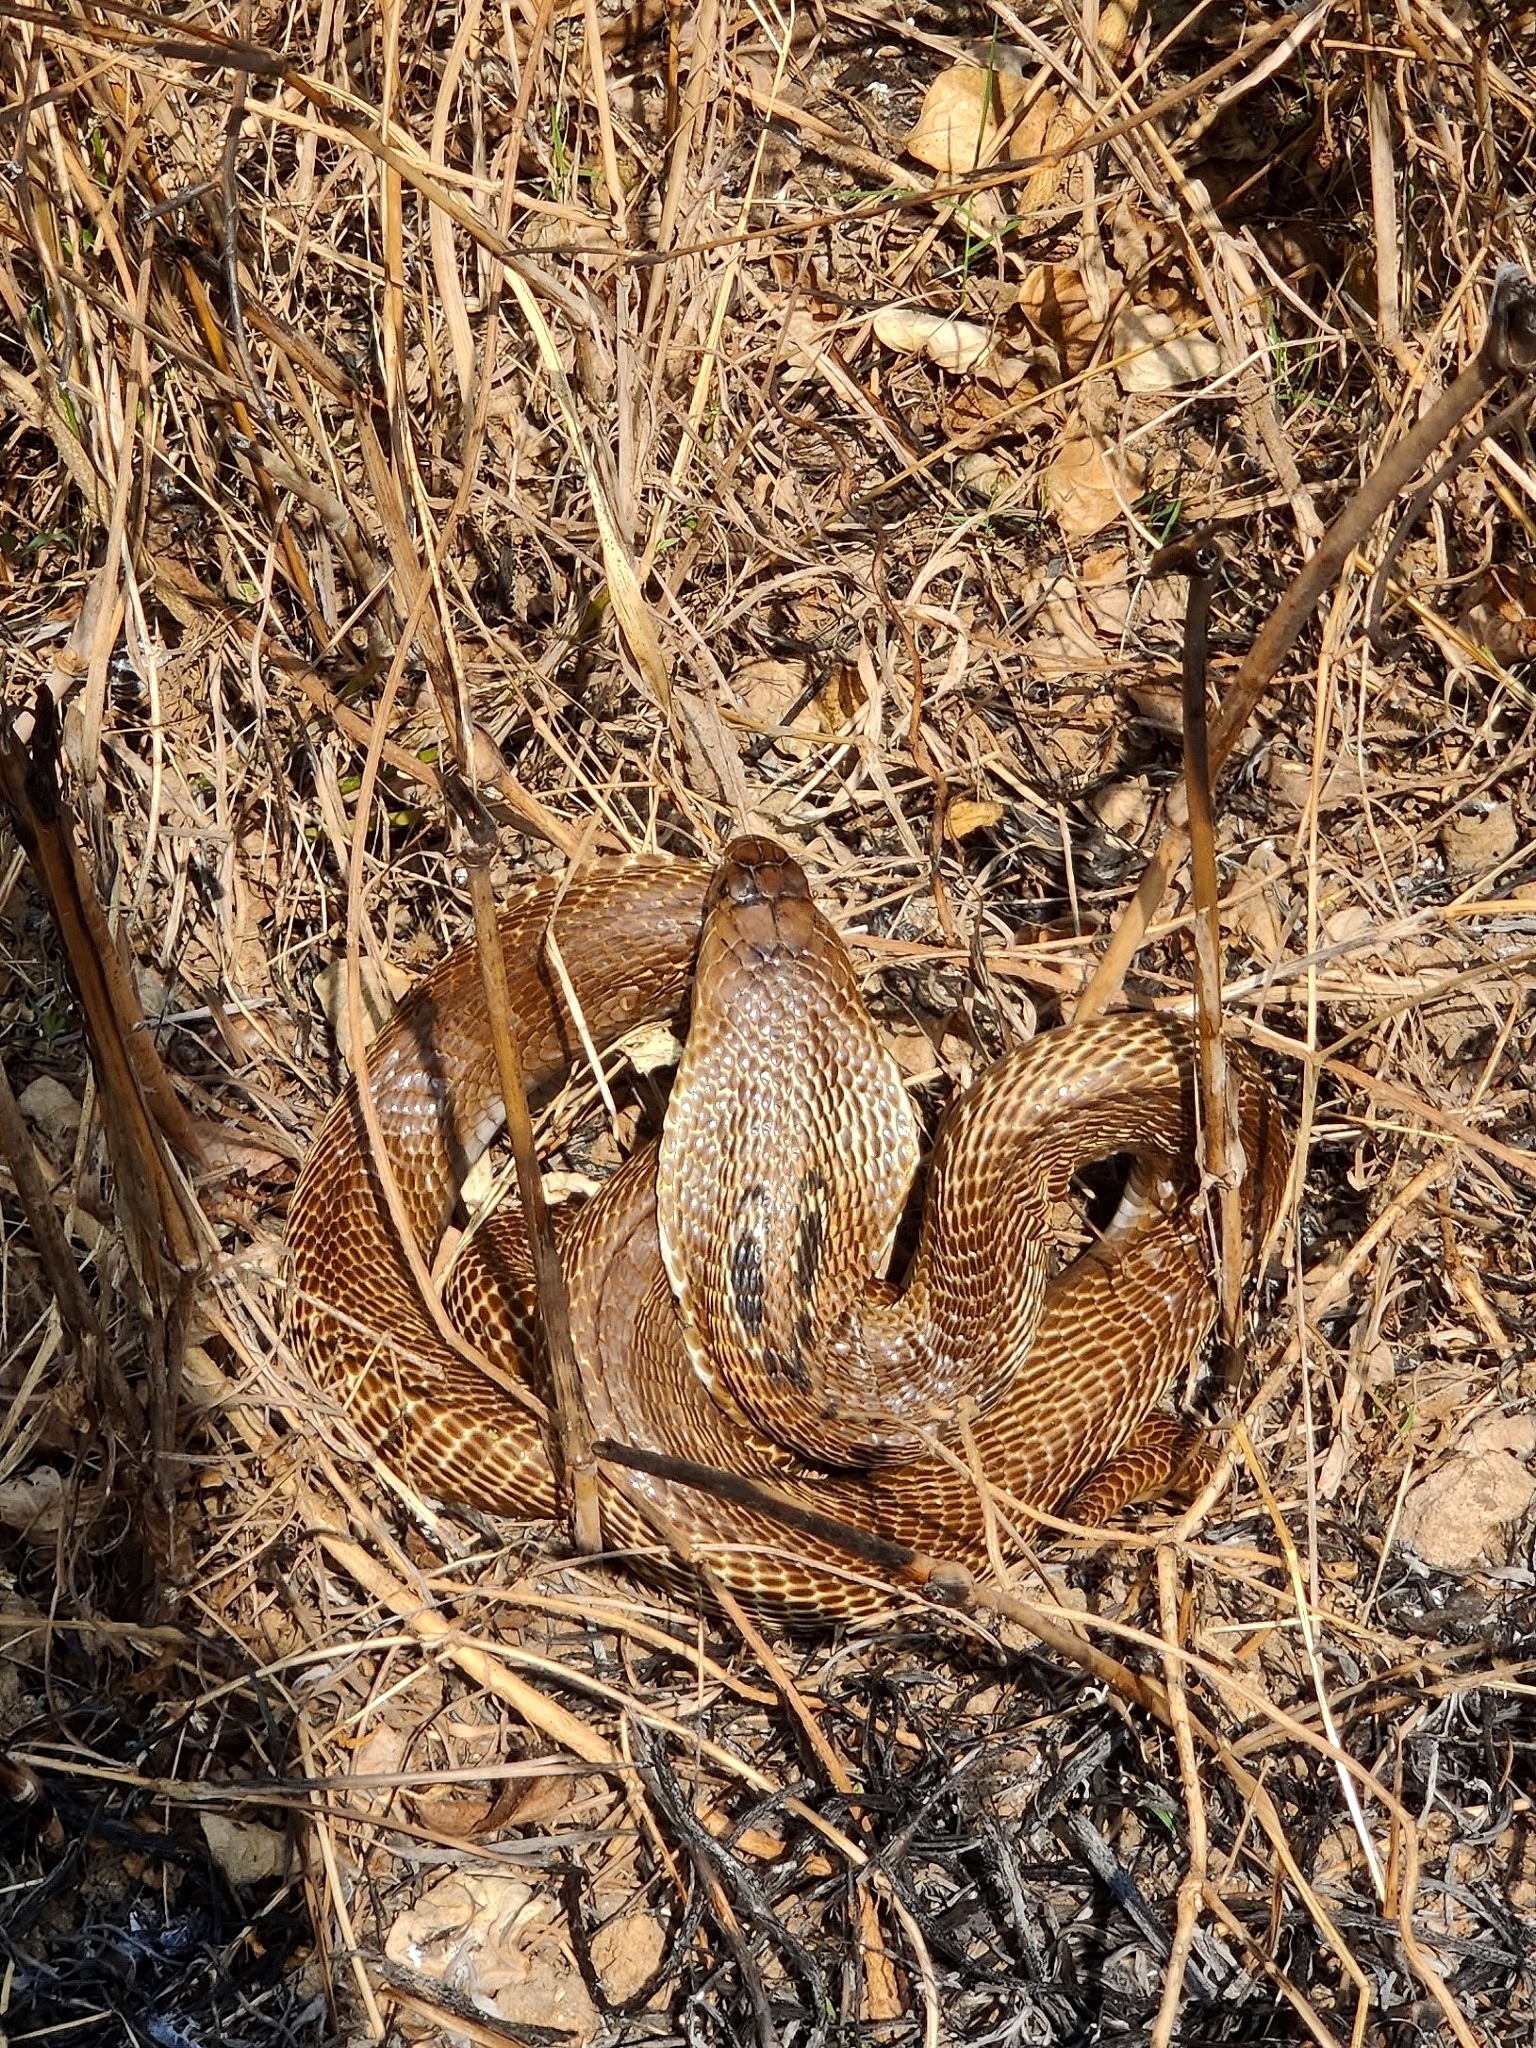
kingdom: Animalia
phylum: Chordata
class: Squamata
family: Elapidae
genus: Naja
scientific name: Naja naja
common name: Indian cobra
